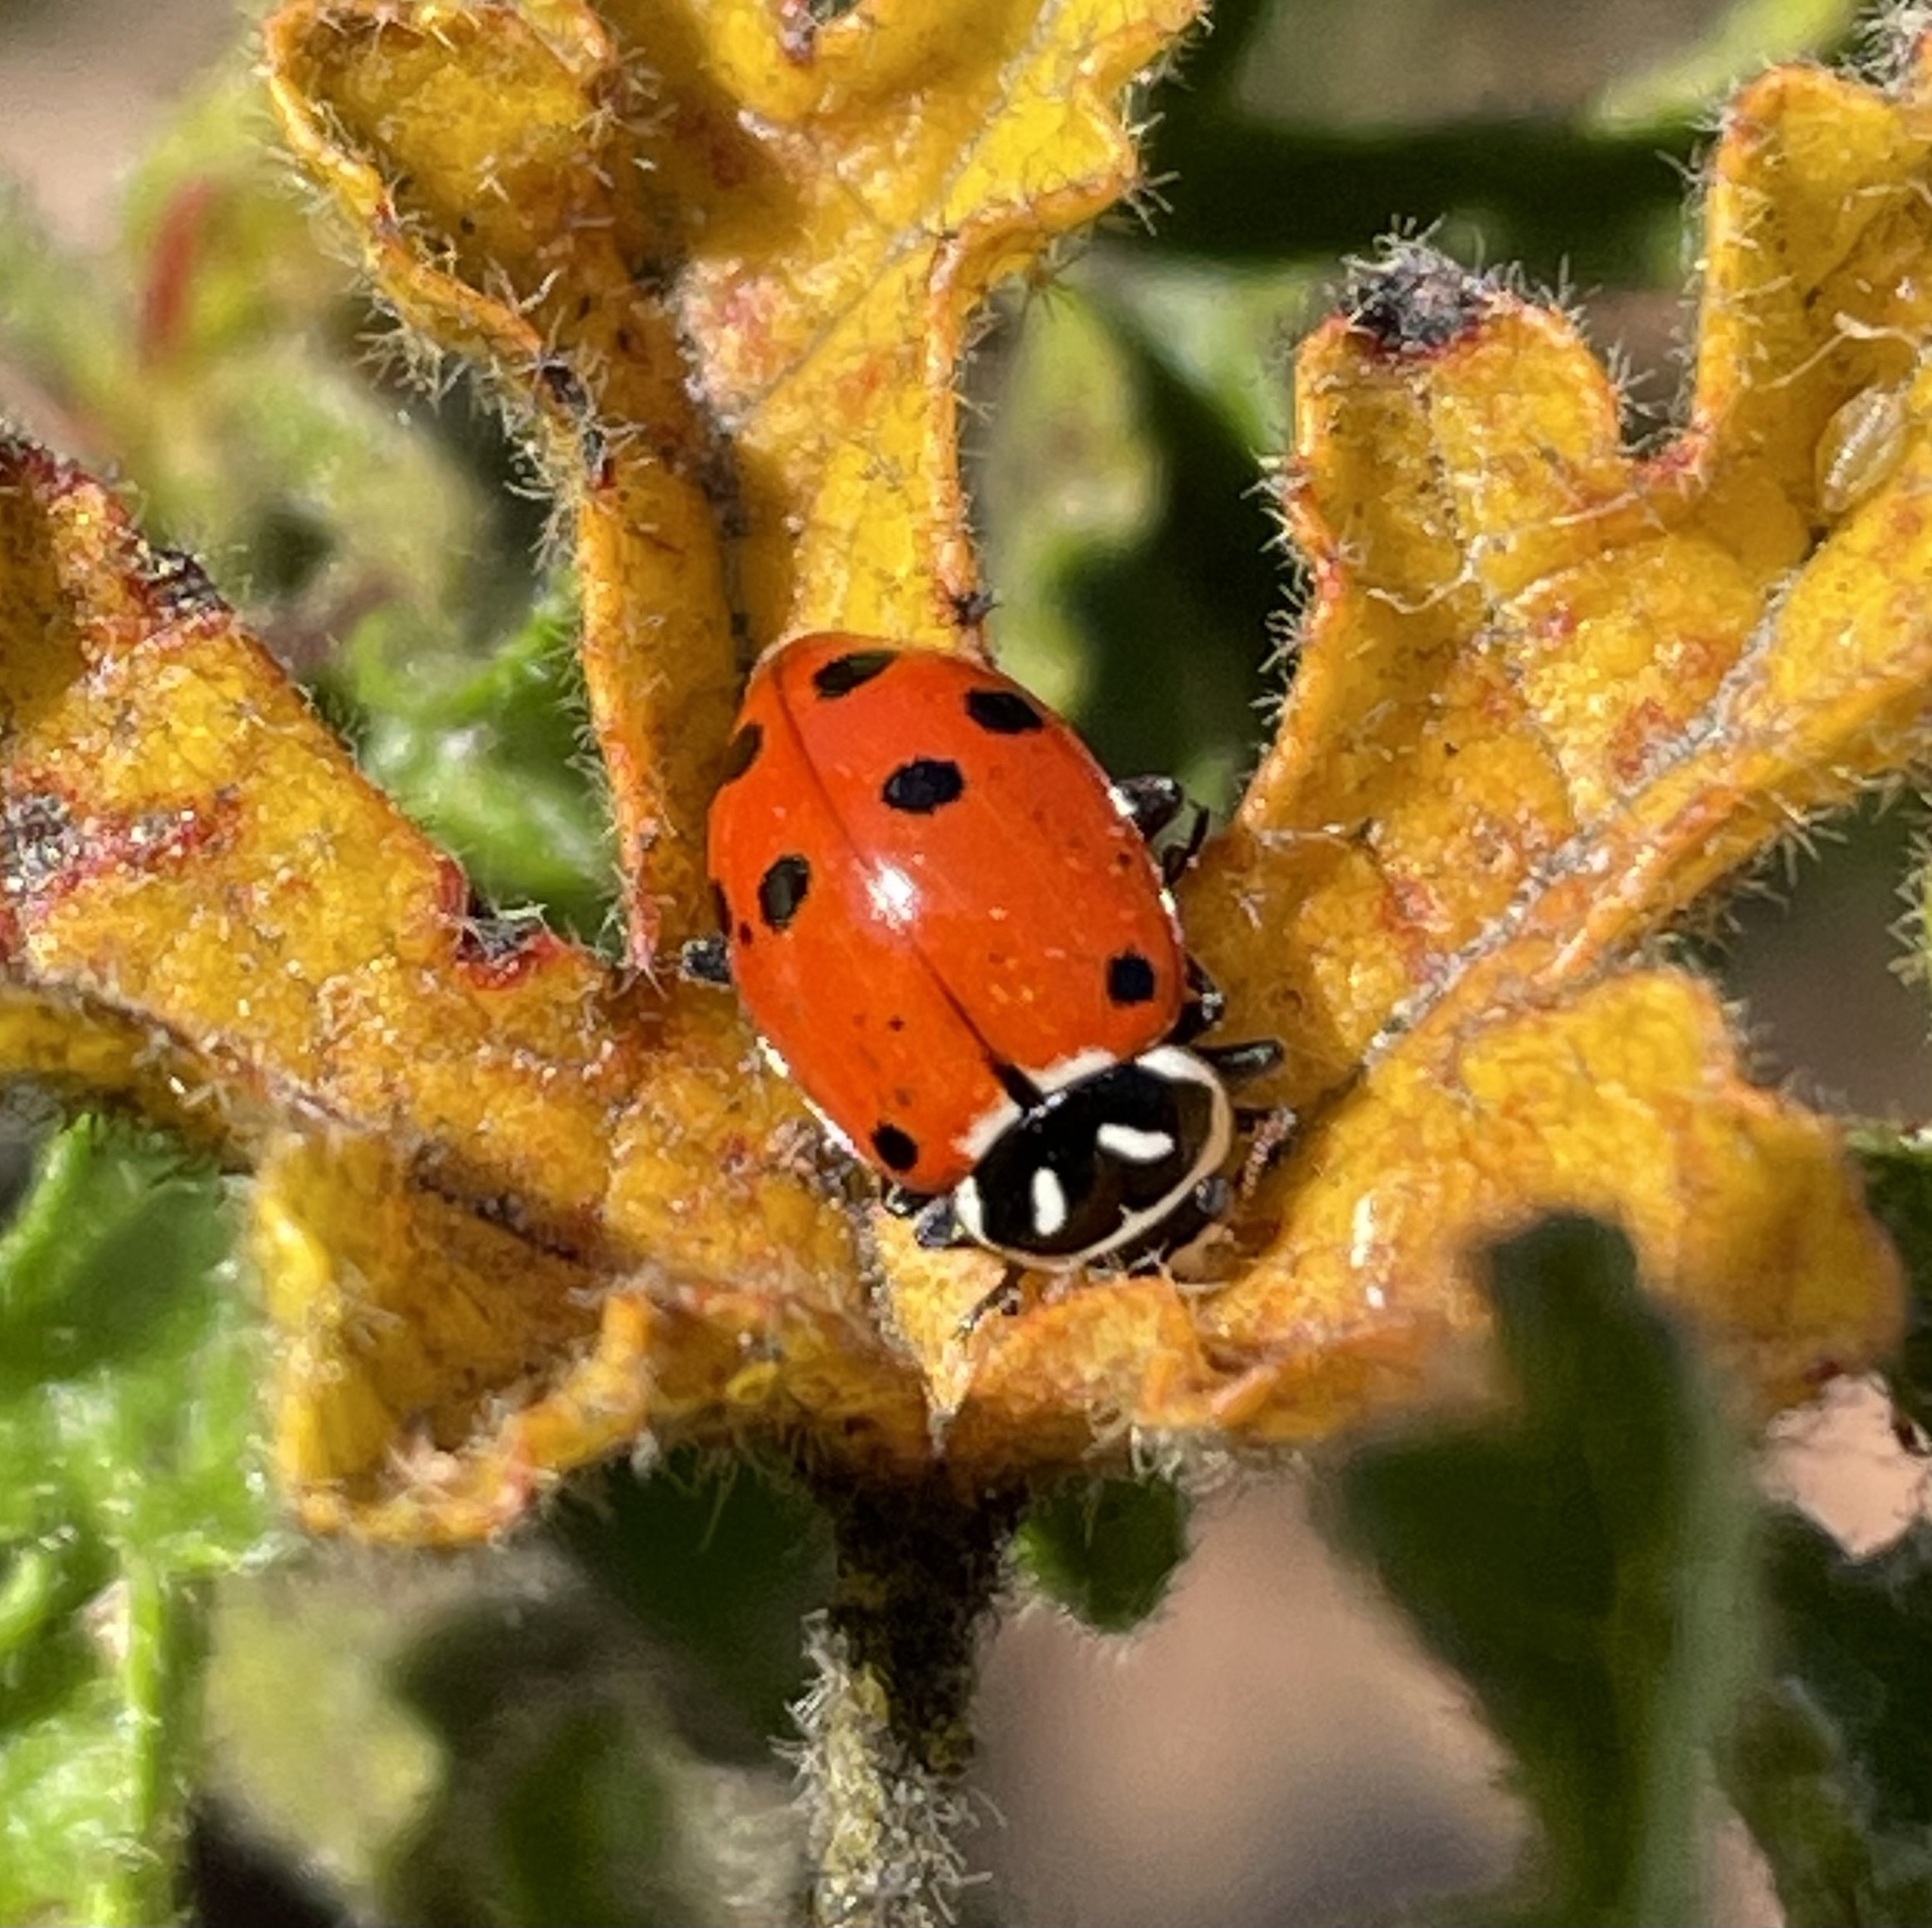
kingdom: Animalia
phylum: Arthropoda
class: Insecta
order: Coleoptera
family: Coccinellidae
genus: Hippodamia
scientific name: Hippodamia convergens
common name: Convergent lady beetle
